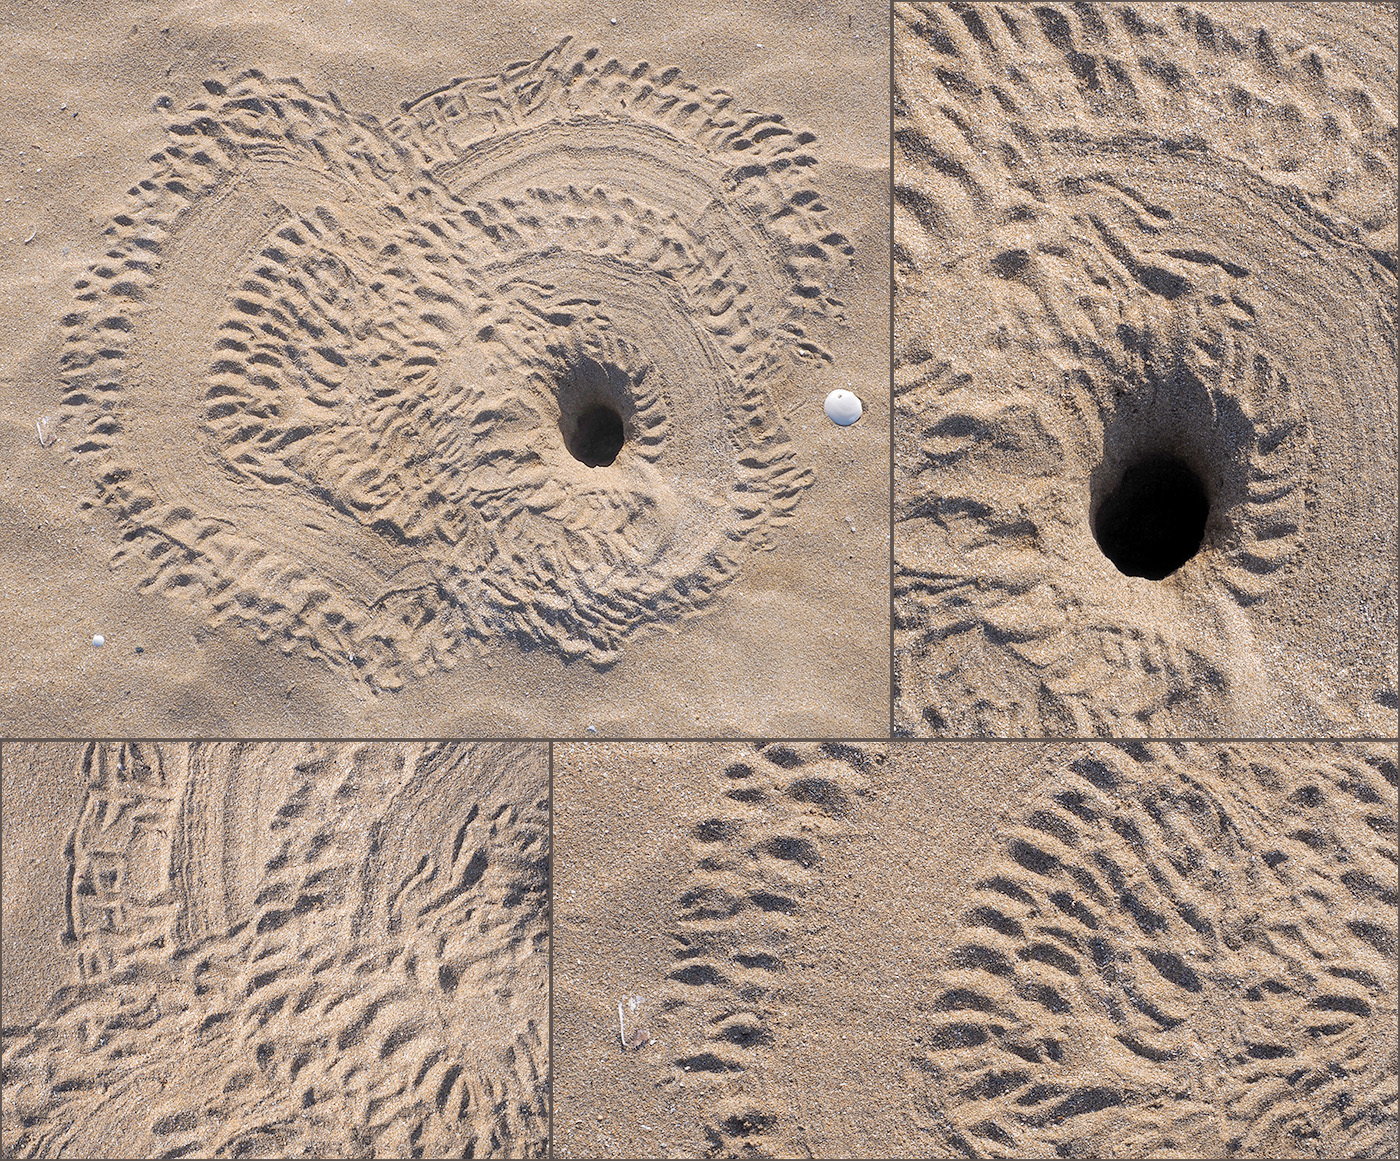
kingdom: Animalia
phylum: Arthropoda
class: Malacostraca
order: Decapoda
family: Ocypodidae
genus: Ocypode
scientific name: Ocypode cursor
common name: Tufted ghost crab
